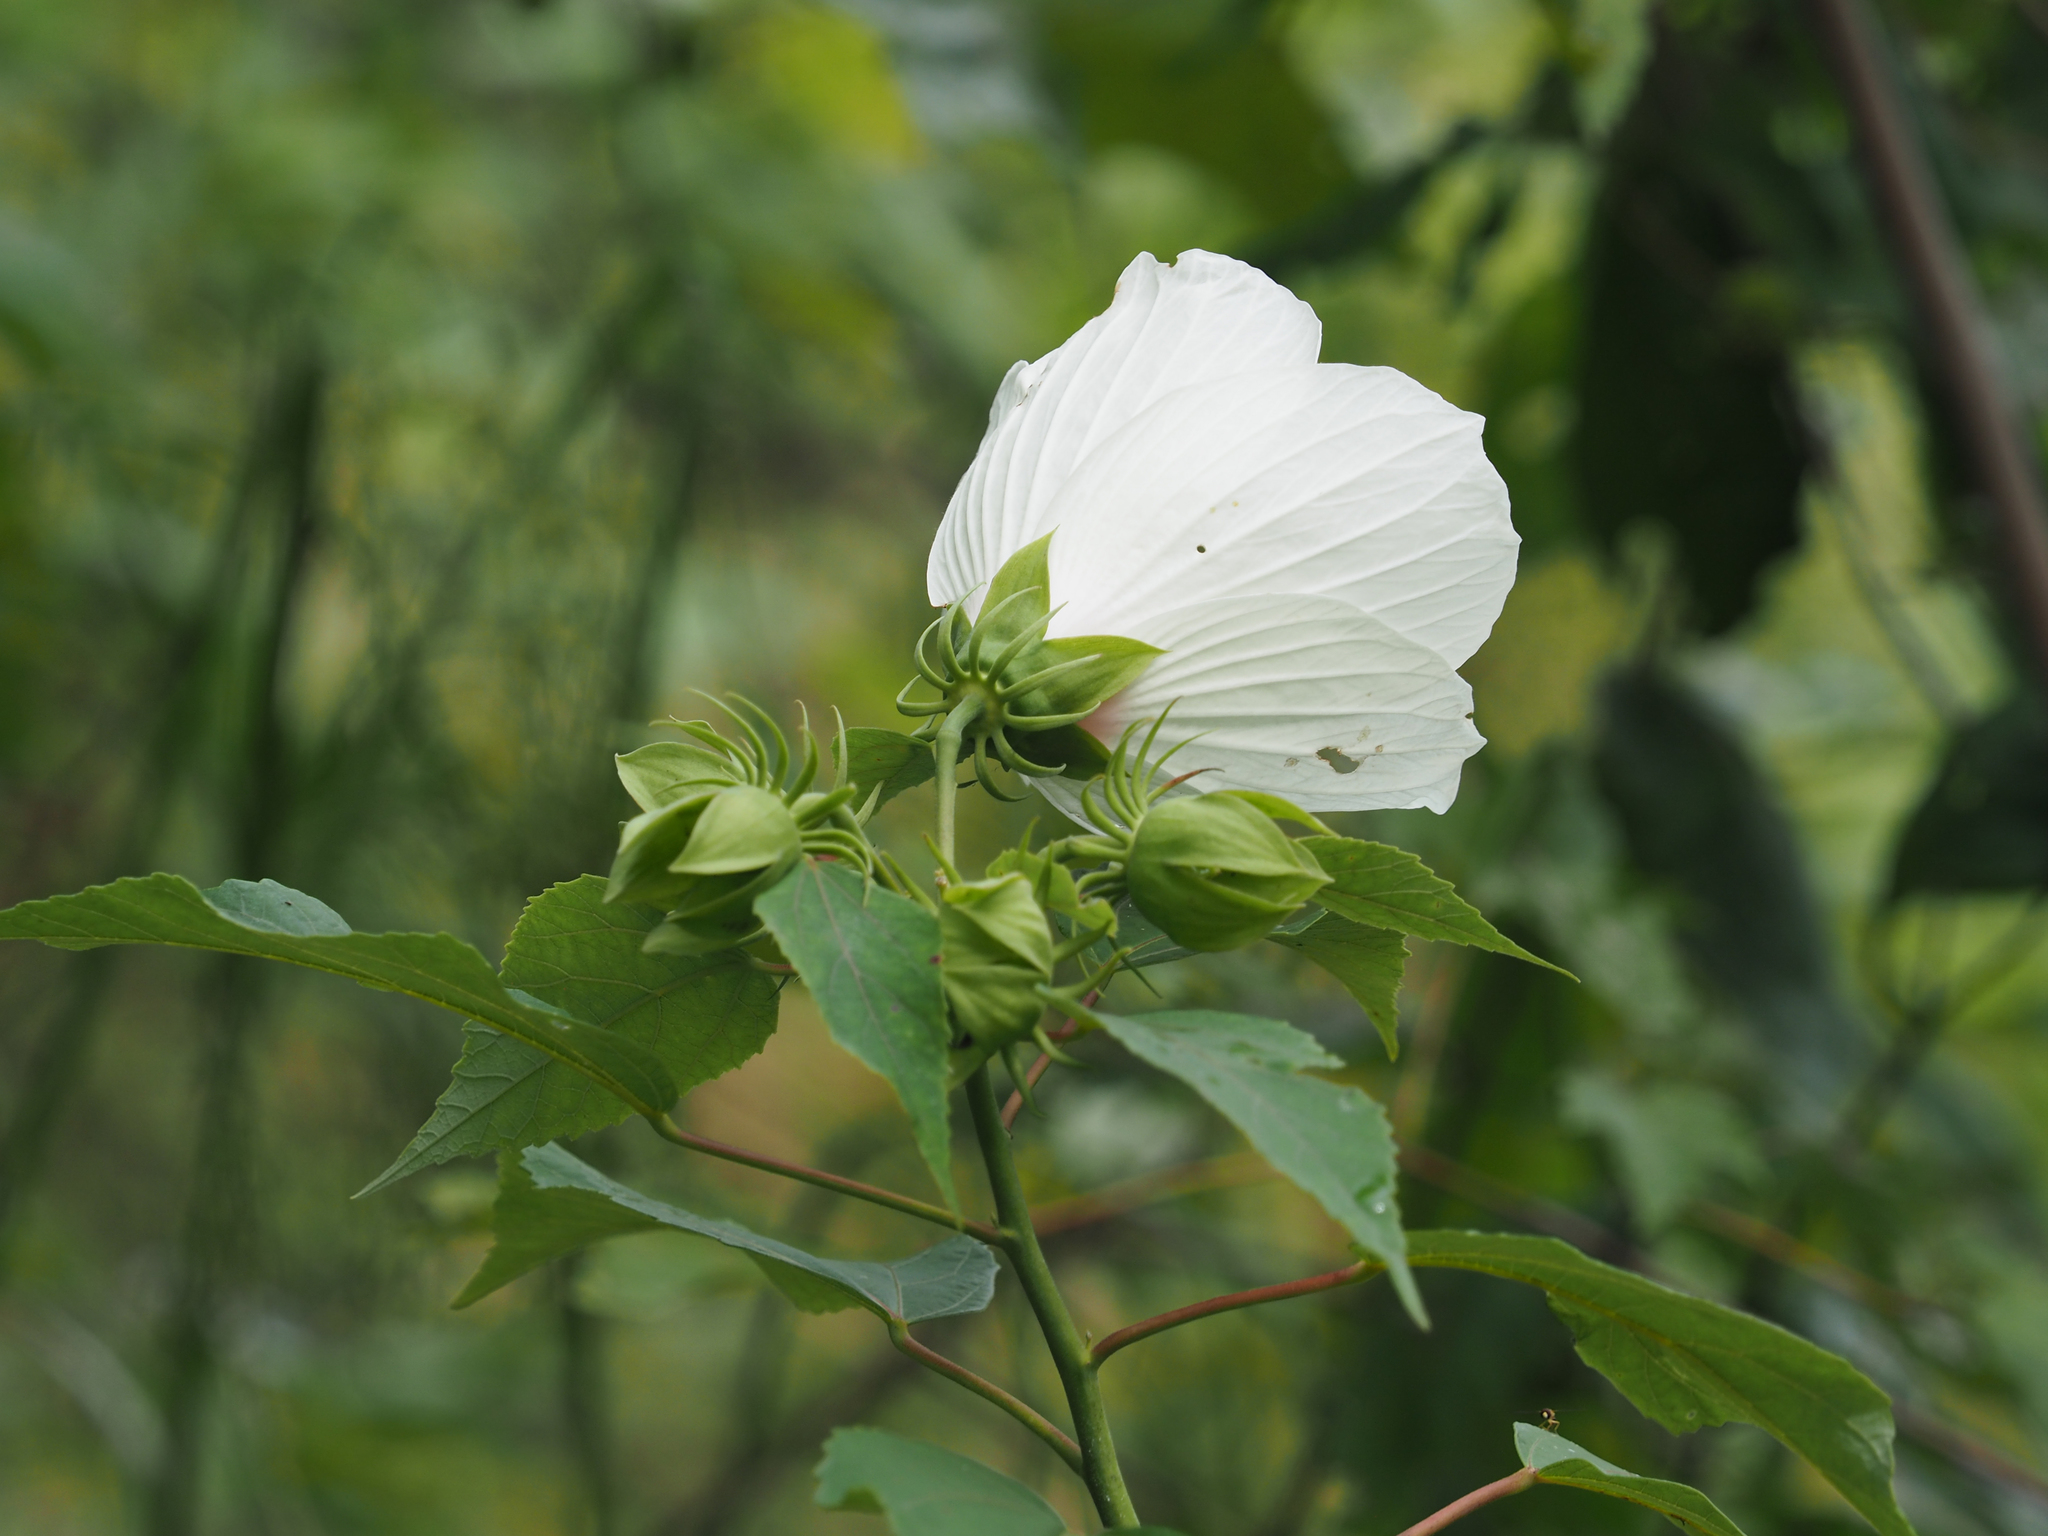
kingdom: Plantae
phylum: Tracheophyta
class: Magnoliopsida
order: Malvales
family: Malvaceae
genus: Hibiscus
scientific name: Hibiscus moscheutos
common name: Common rose-mallow
